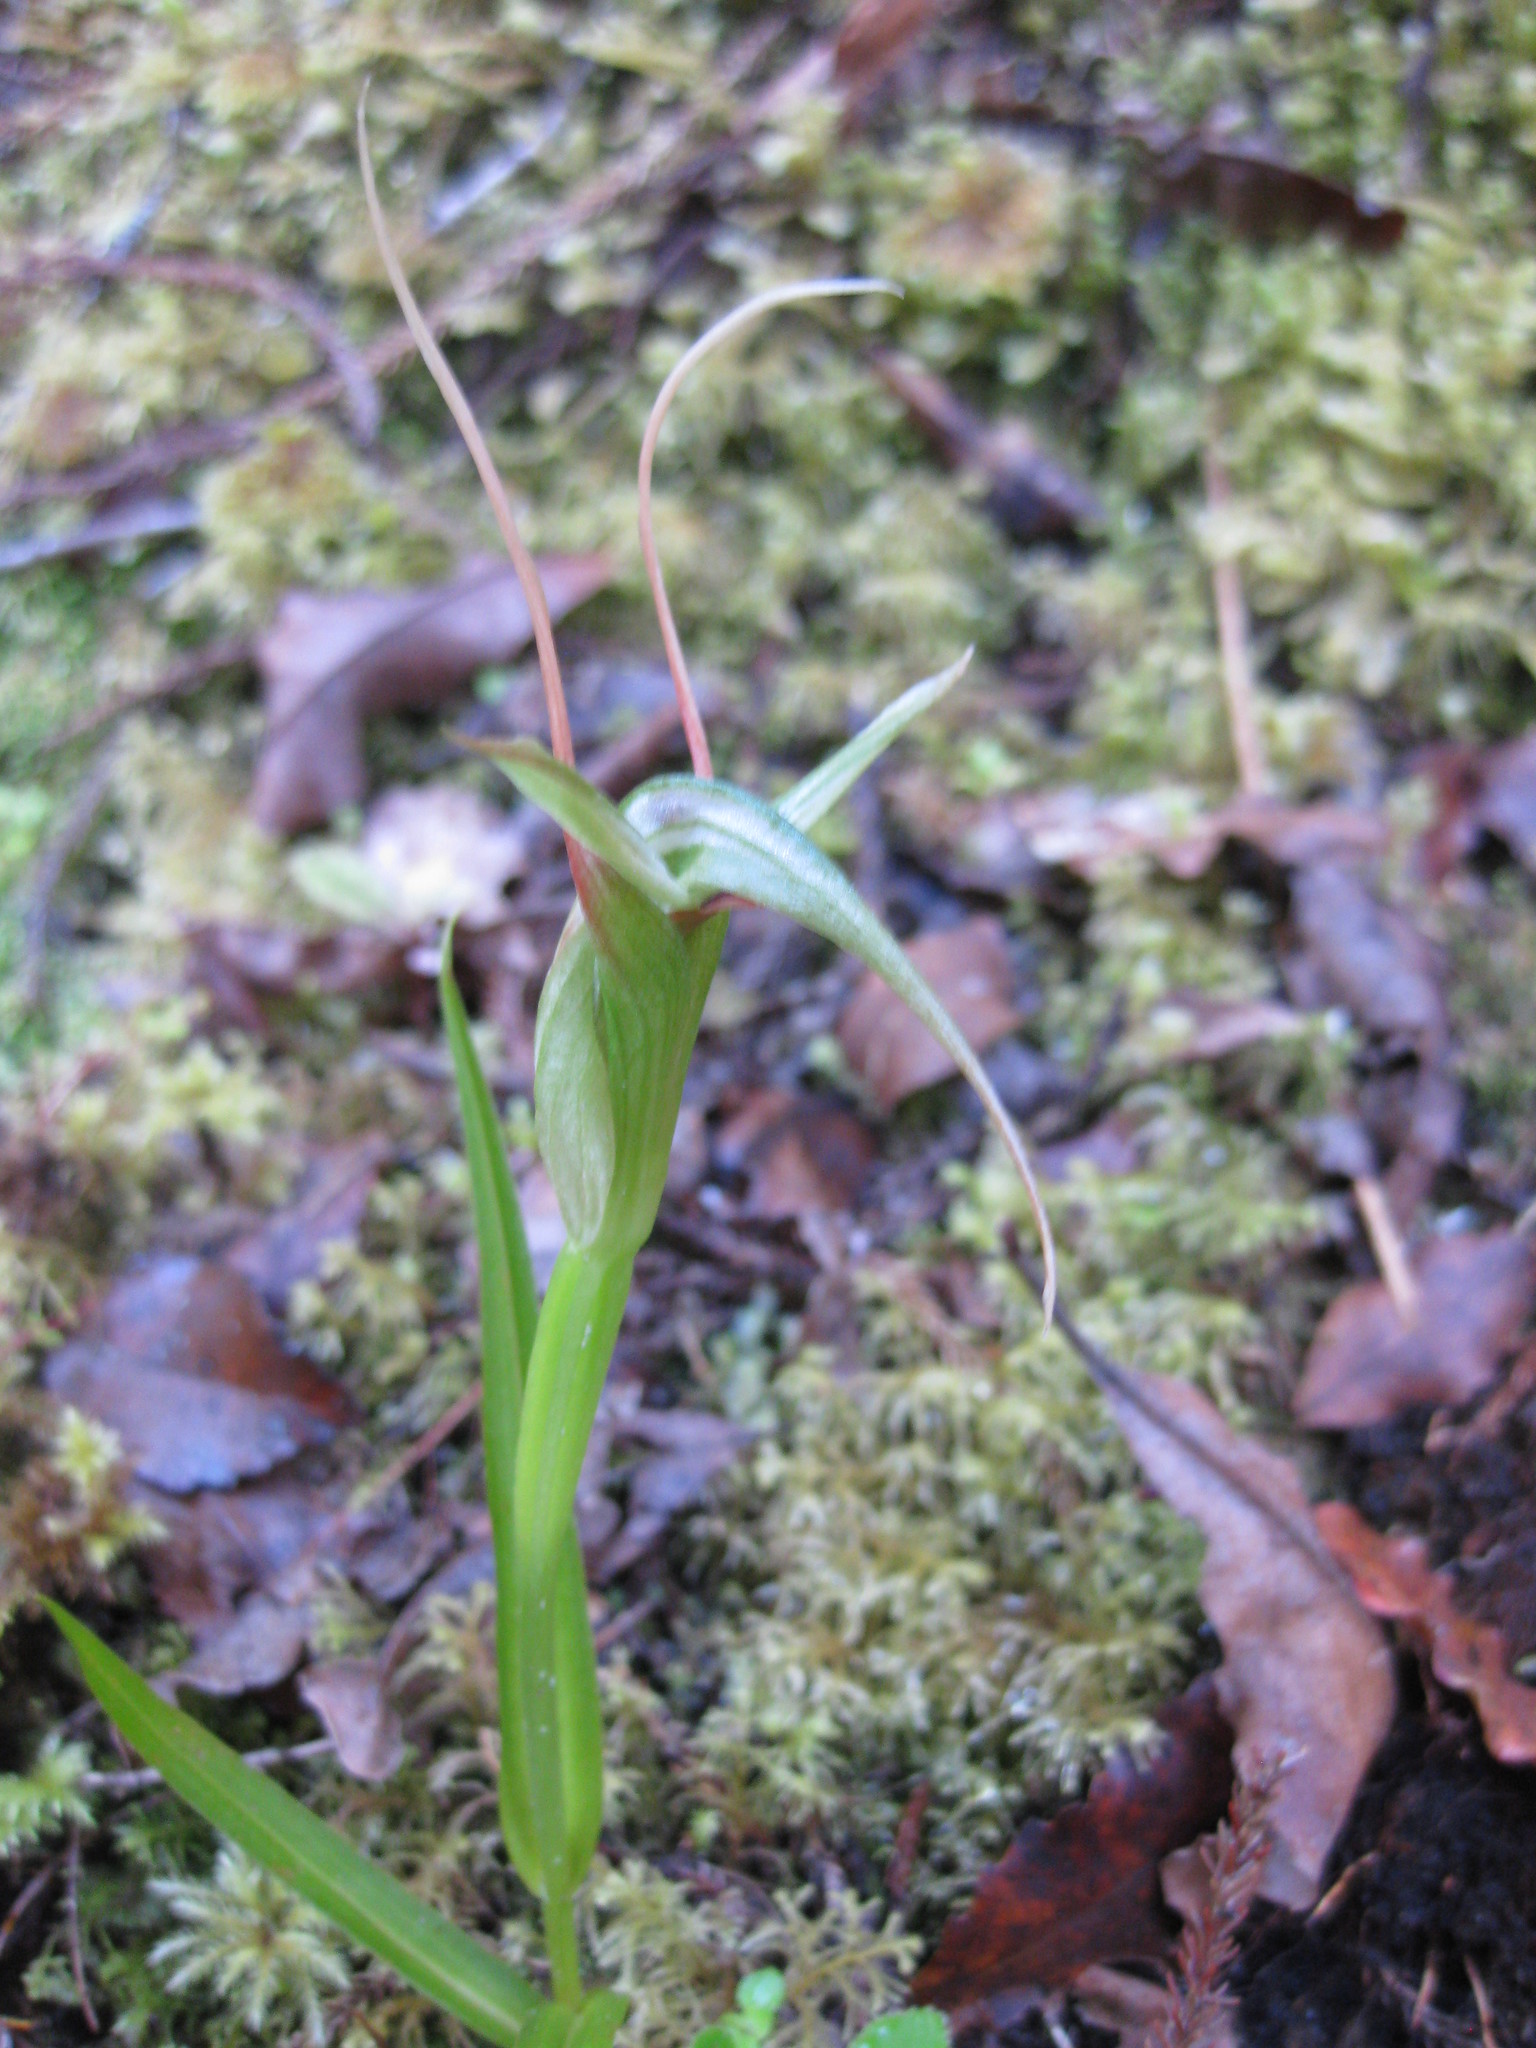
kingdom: Plantae
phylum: Tracheophyta
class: Liliopsida
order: Asparagales
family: Orchidaceae
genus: Pterostylis
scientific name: Pterostylis banksii
